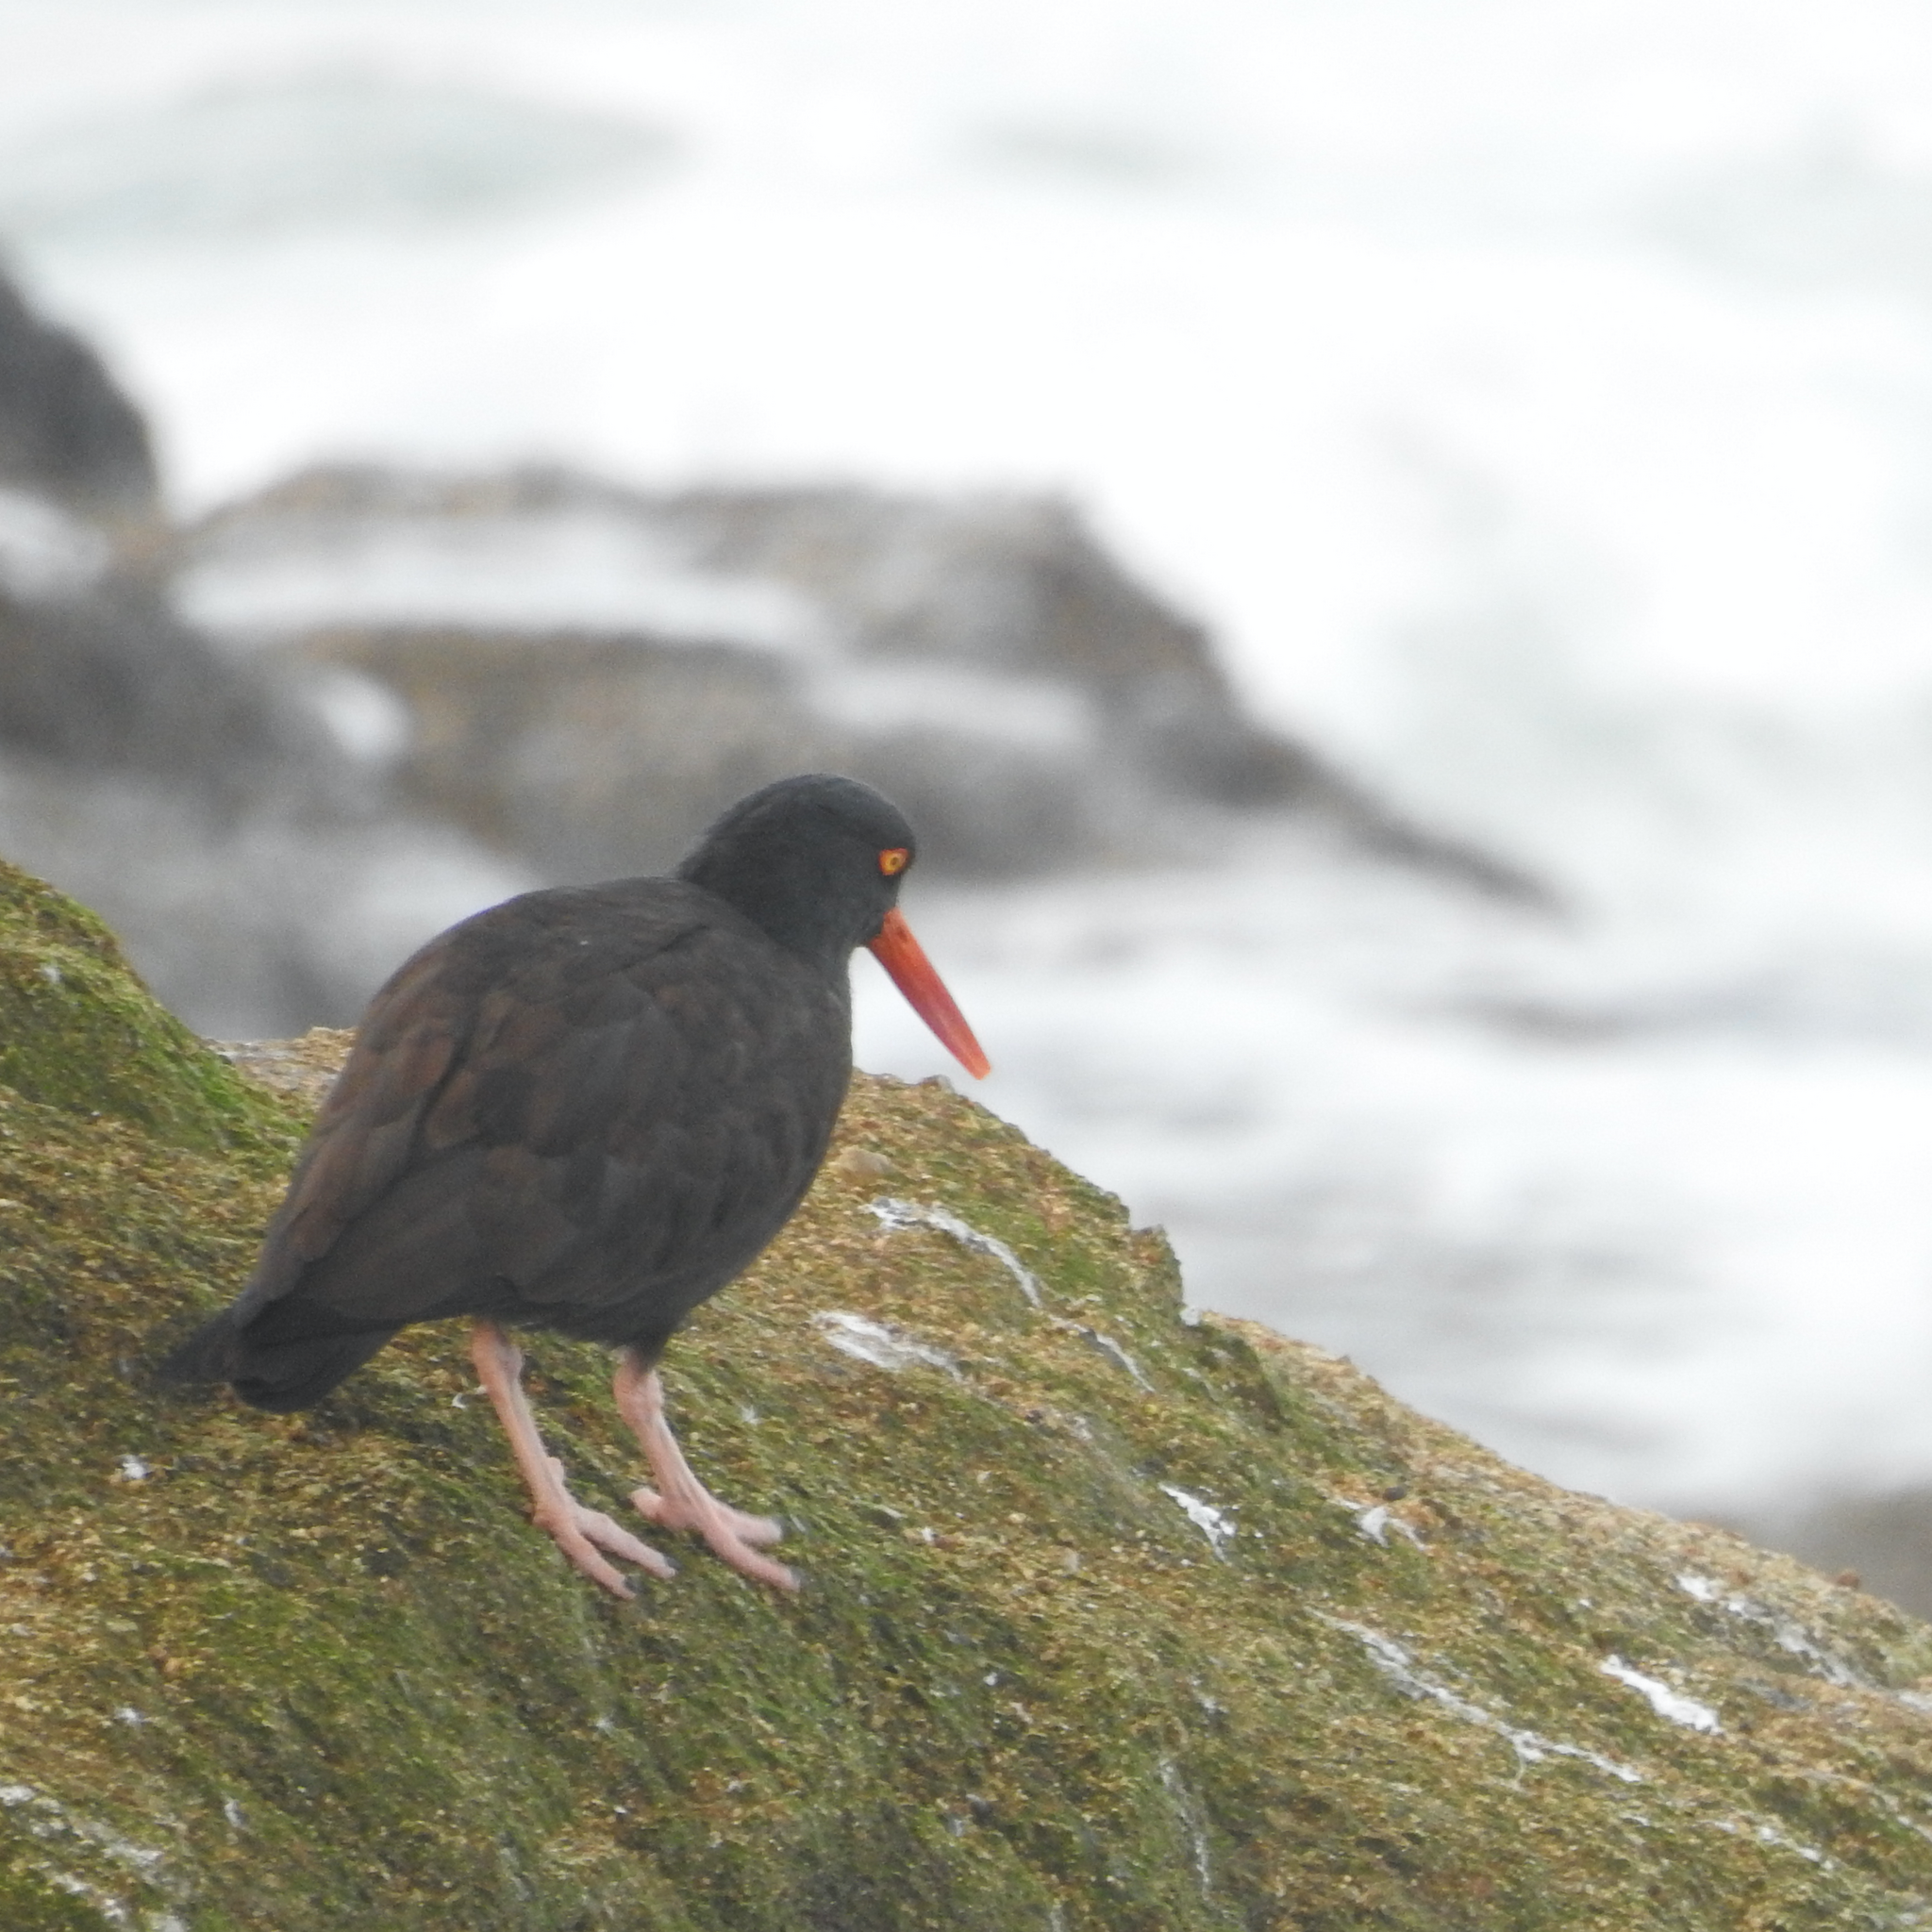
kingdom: Animalia
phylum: Chordata
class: Aves
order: Charadriiformes
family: Haematopodidae
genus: Haematopus
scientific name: Haematopus bachmani
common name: Black oystercatcher
